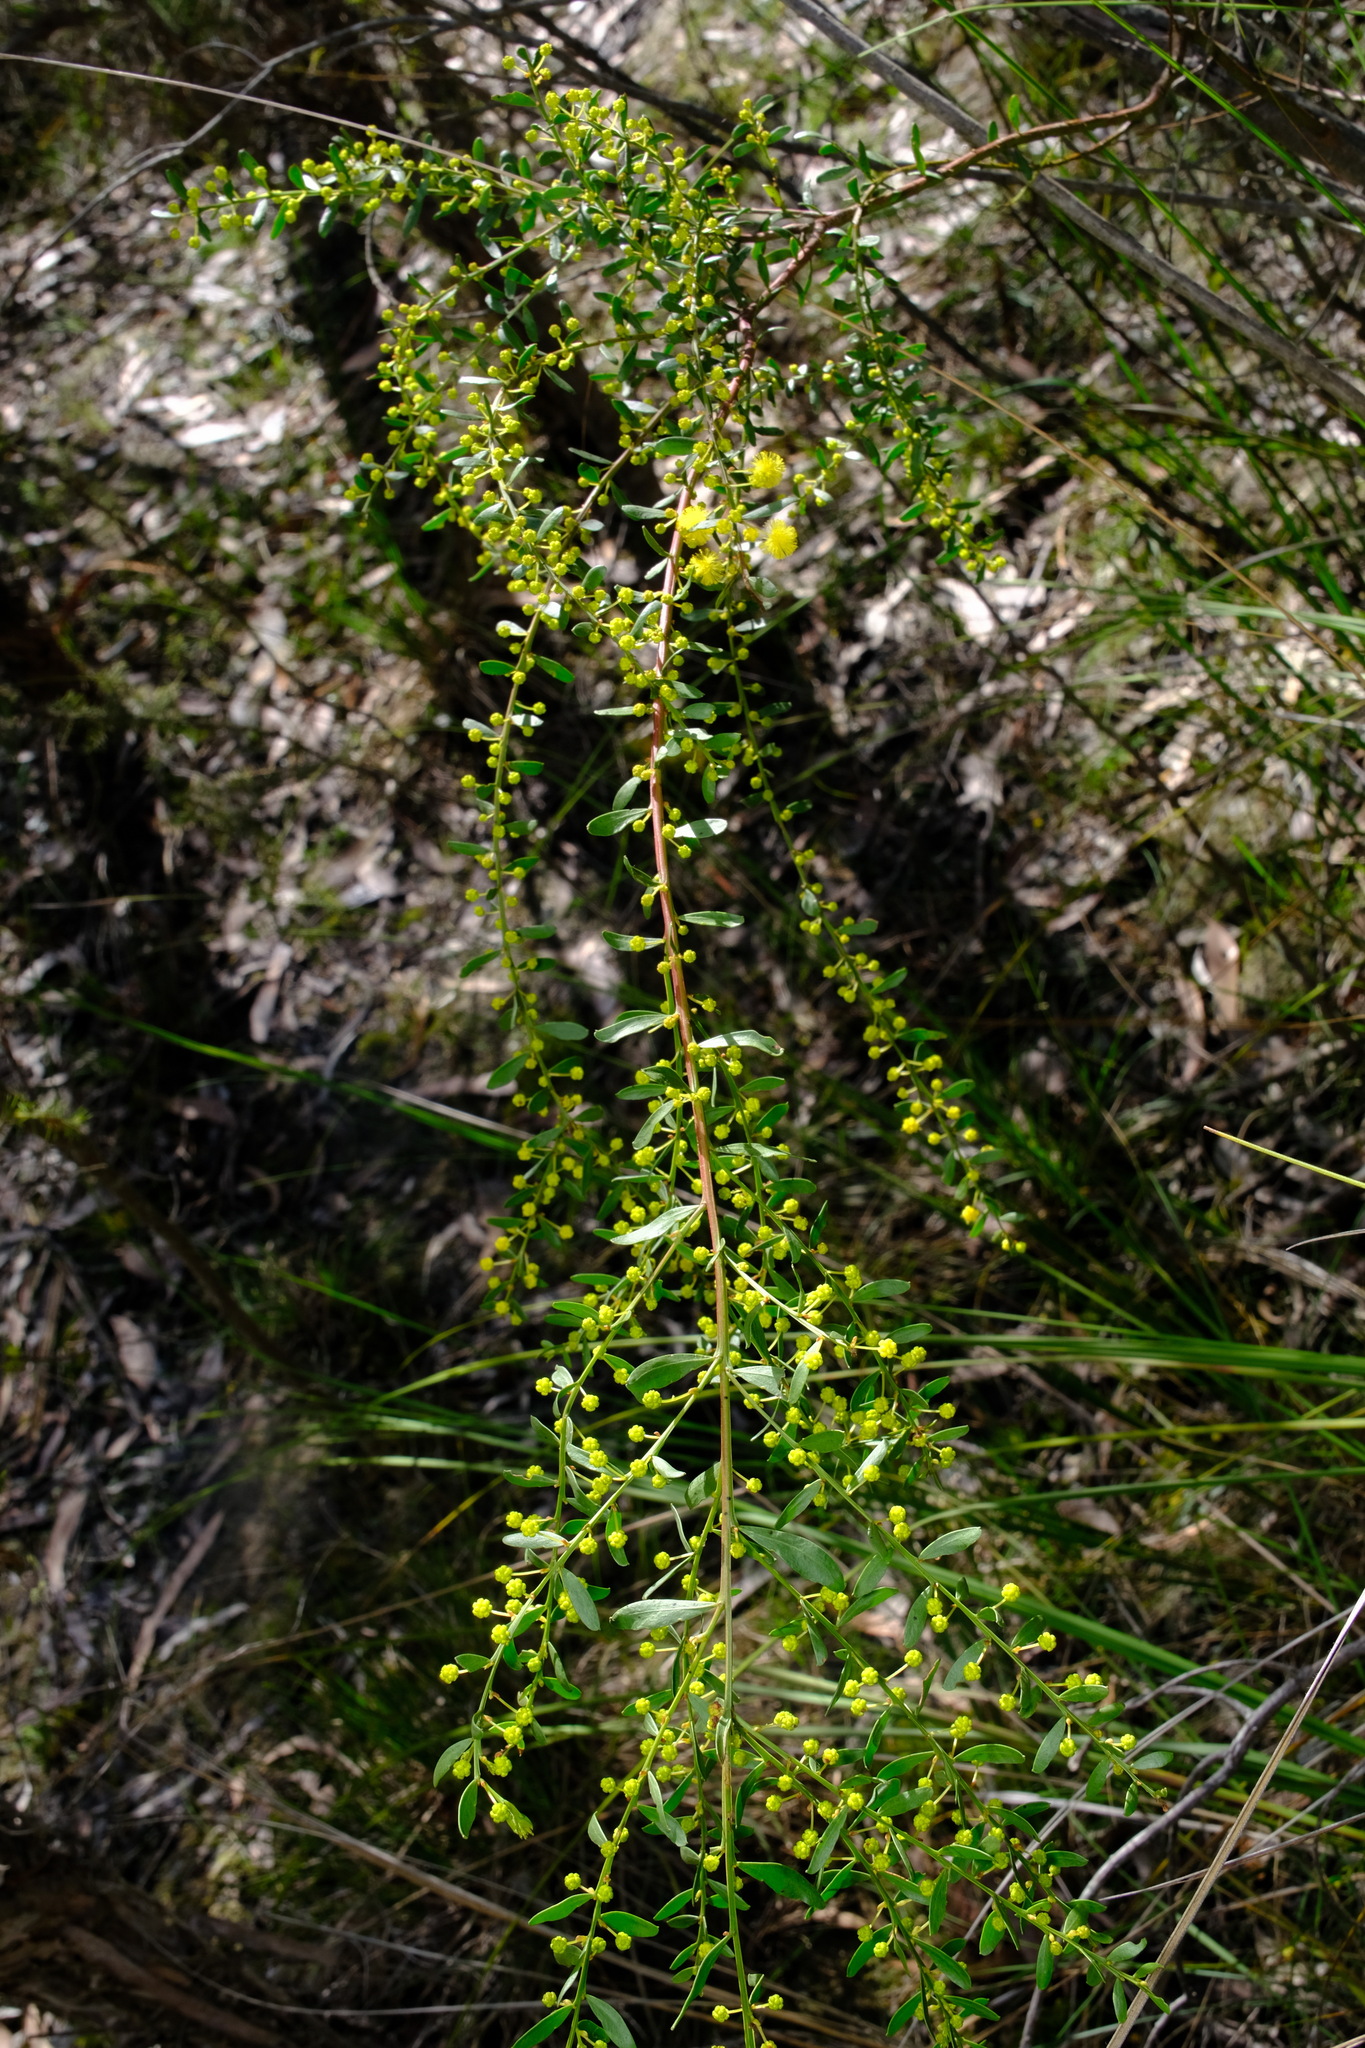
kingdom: Plantae
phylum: Tracheophyta
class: Magnoliopsida
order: Fabales
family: Fabaceae
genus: Acacia
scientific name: Acacia acinacea
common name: Gold-dust acacia
